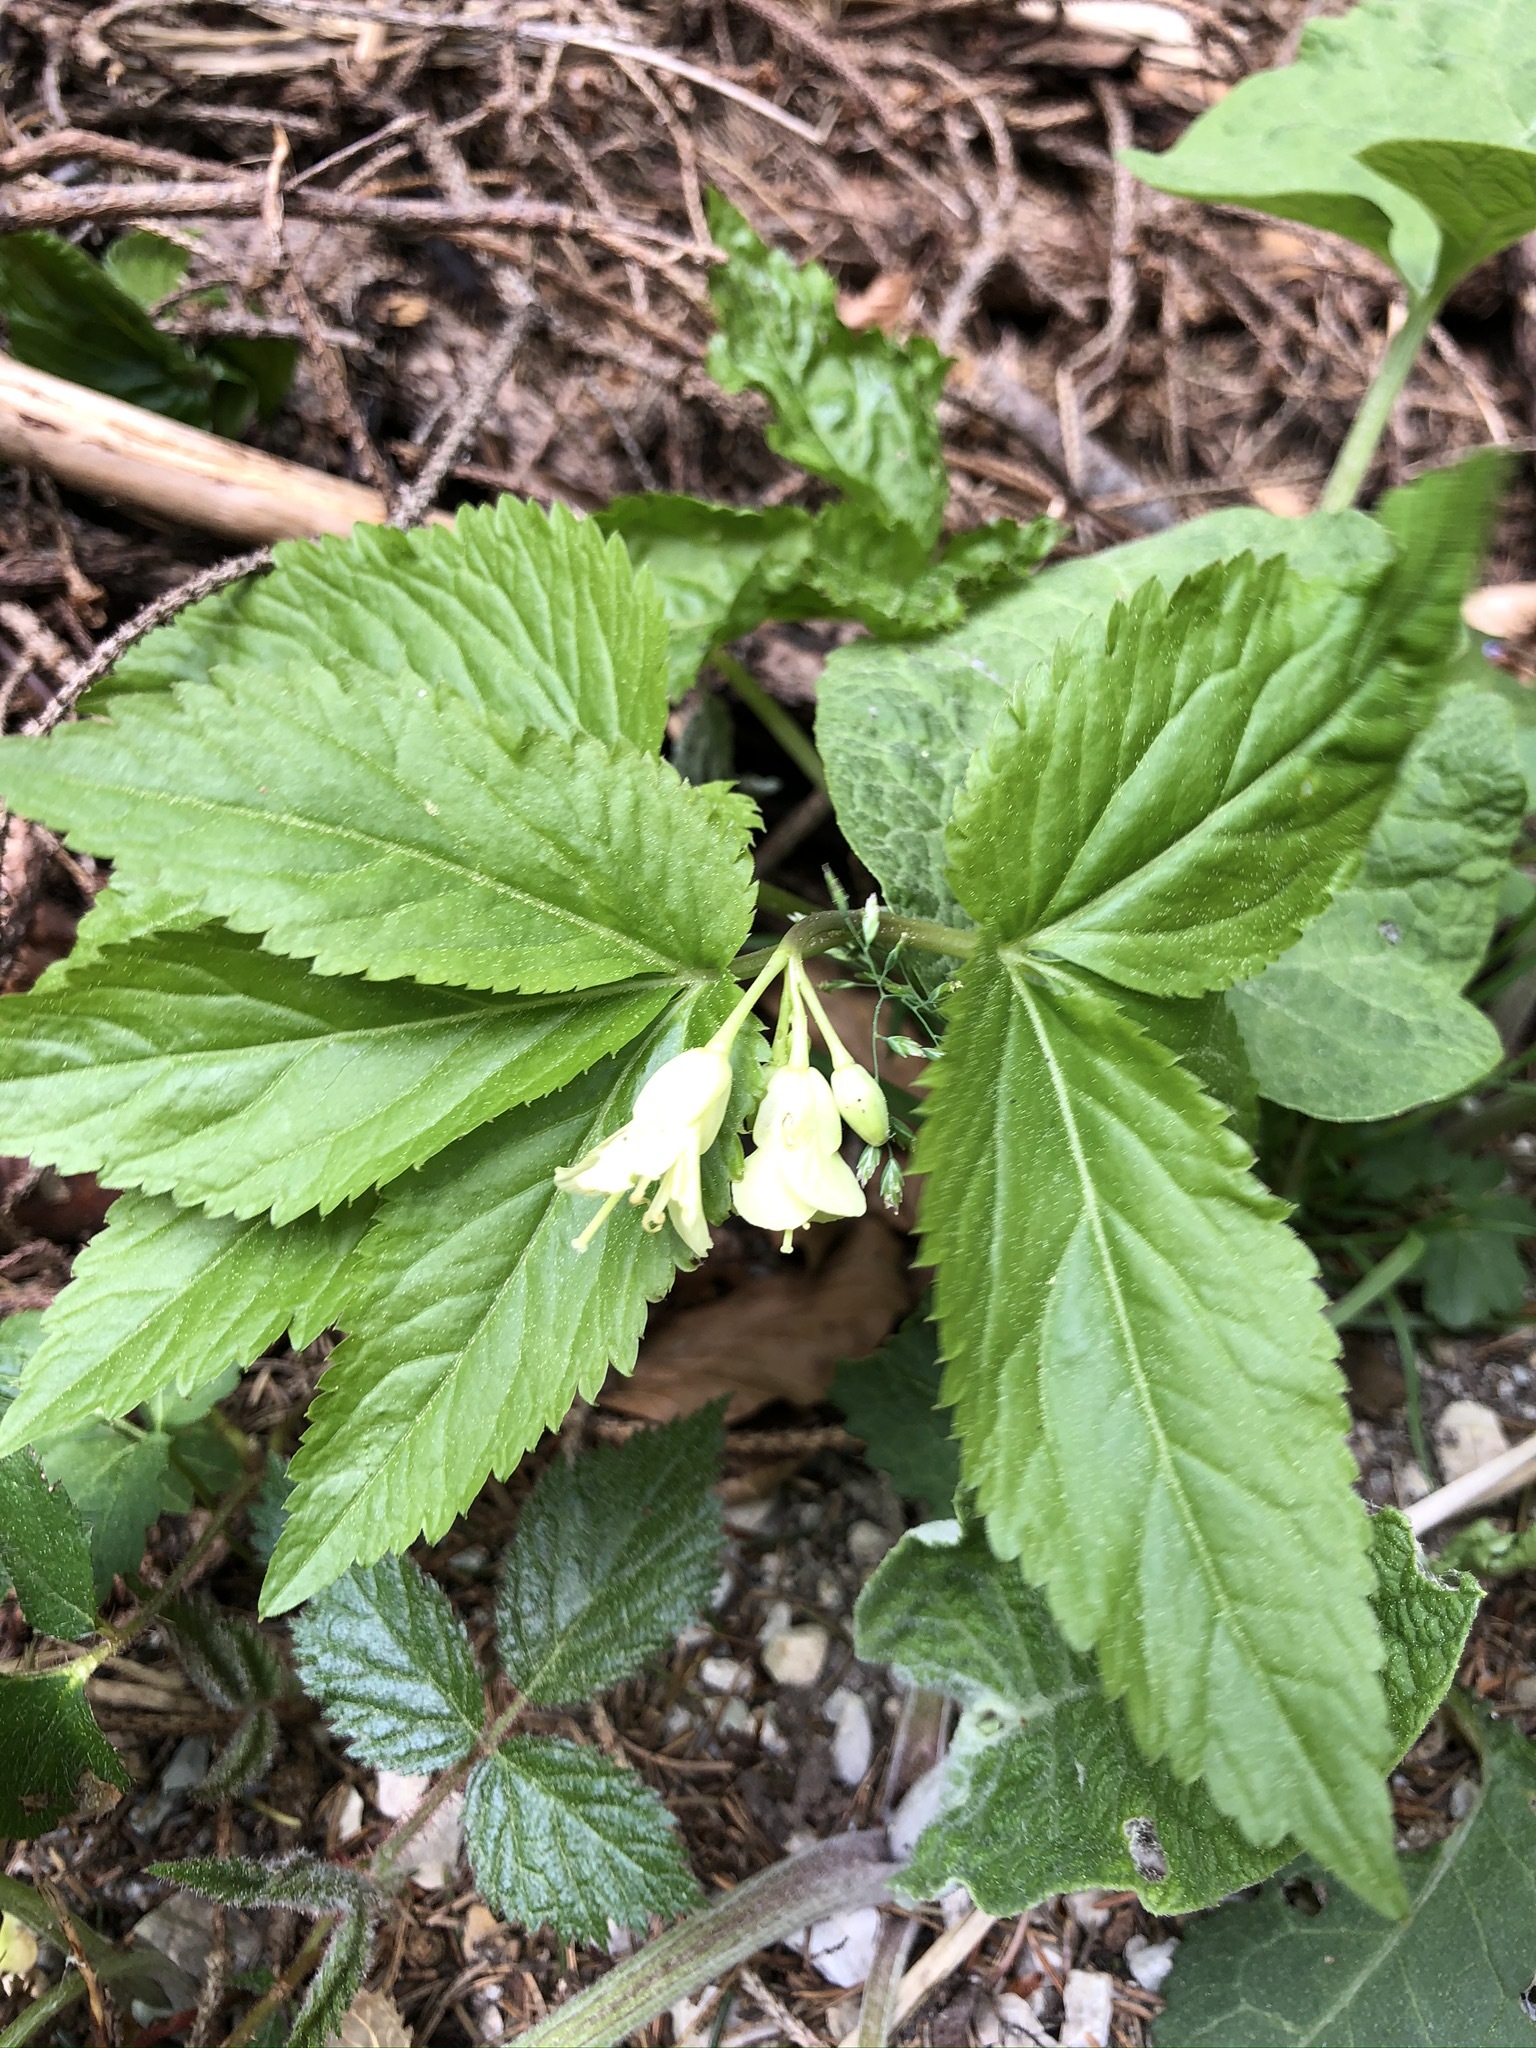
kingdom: Plantae
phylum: Tracheophyta
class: Magnoliopsida
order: Brassicales
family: Brassicaceae
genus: Cardamine
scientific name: Cardamine enneaphyllos
